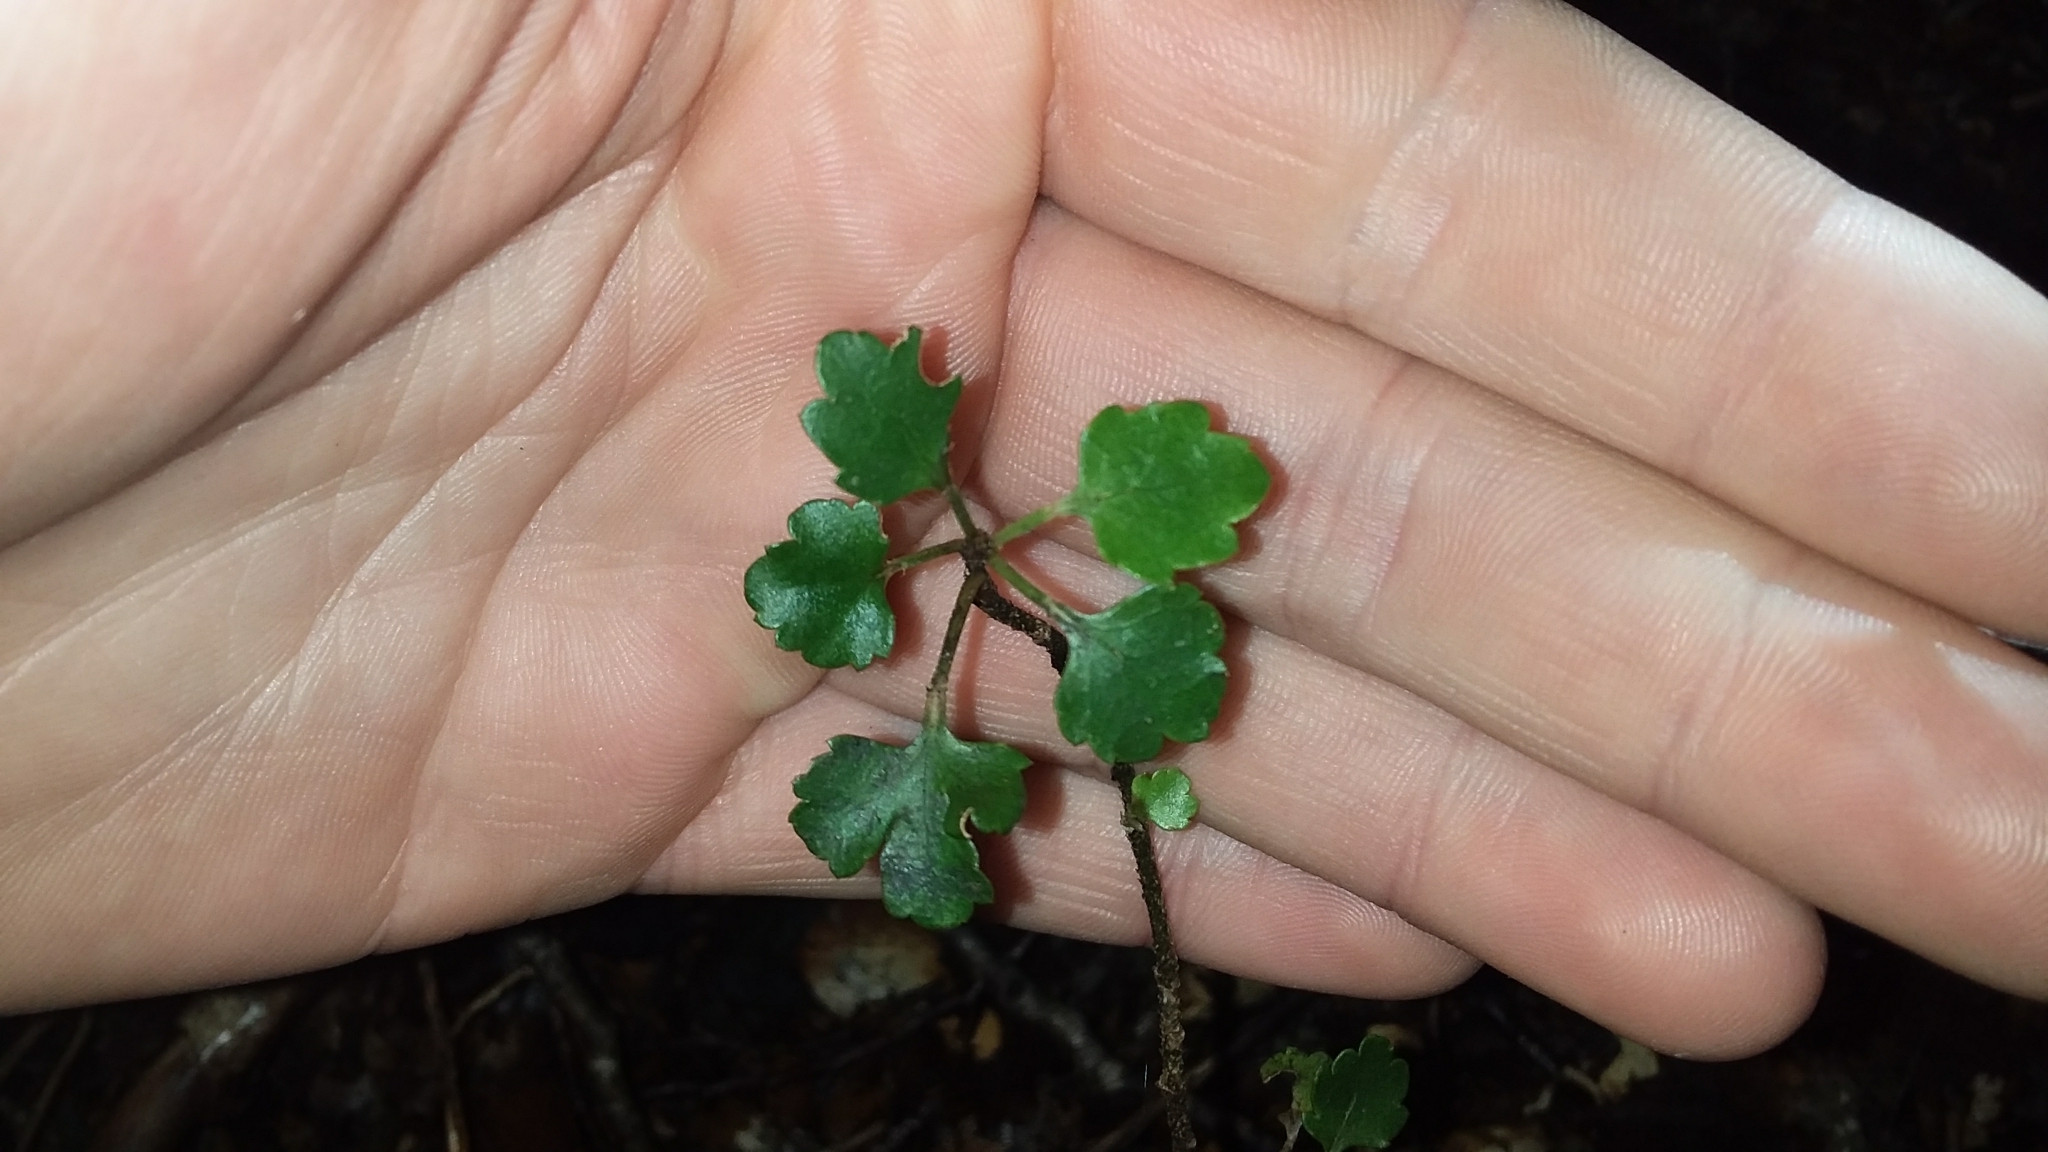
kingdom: Plantae
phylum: Tracheophyta
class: Magnoliopsida
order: Apiales
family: Araliaceae
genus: Raukaua
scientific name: Raukaua anomalus
